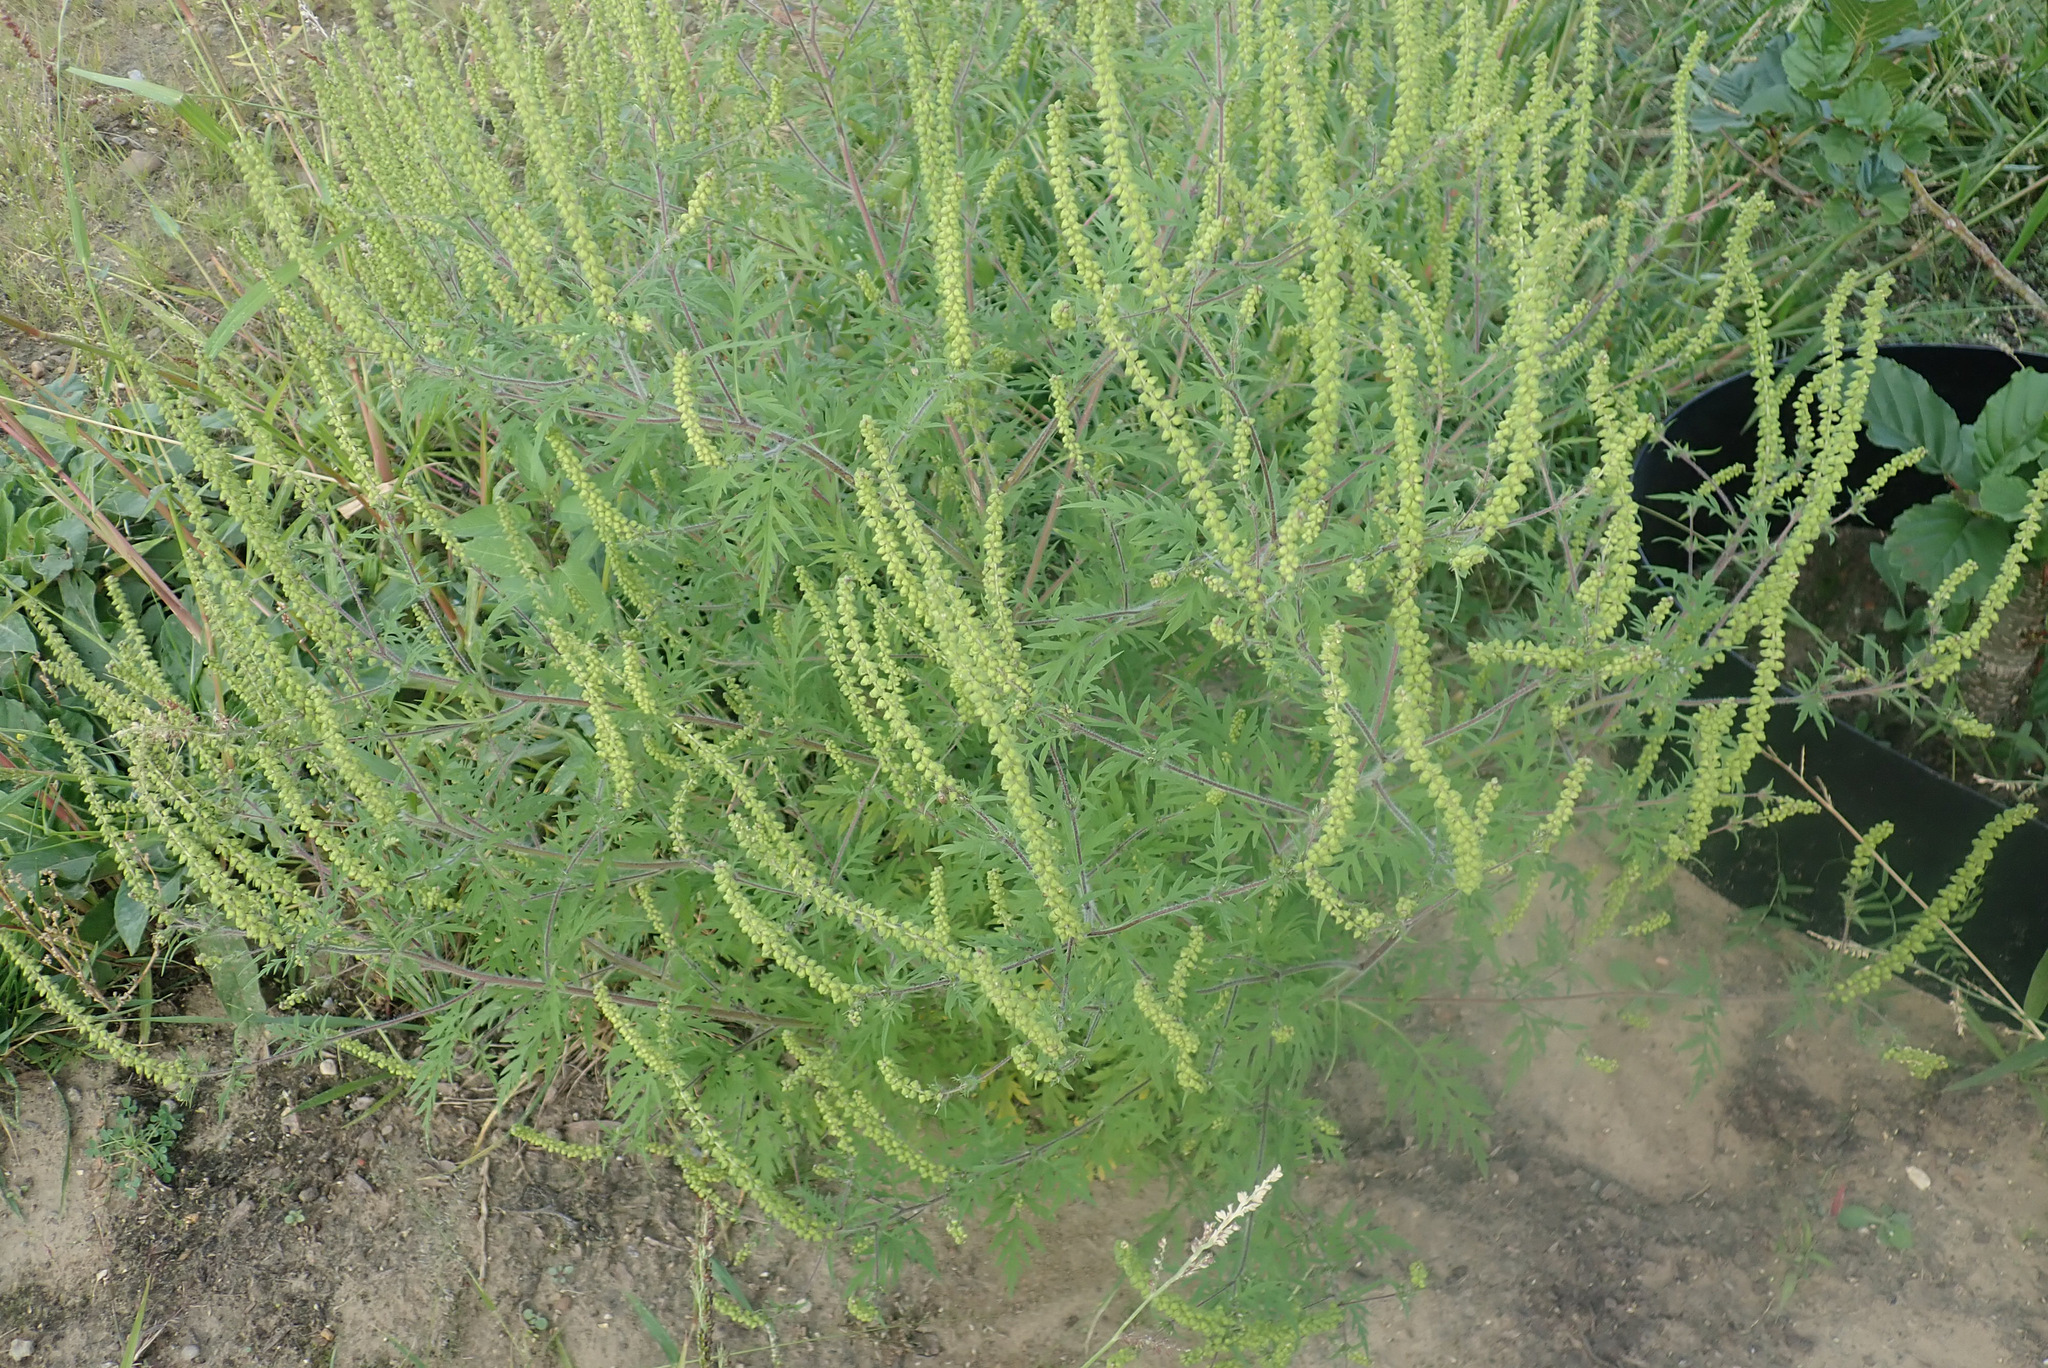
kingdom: Plantae
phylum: Tracheophyta
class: Magnoliopsida
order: Asterales
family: Asteraceae
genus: Ambrosia
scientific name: Ambrosia artemisiifolia
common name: Annual ragweed
